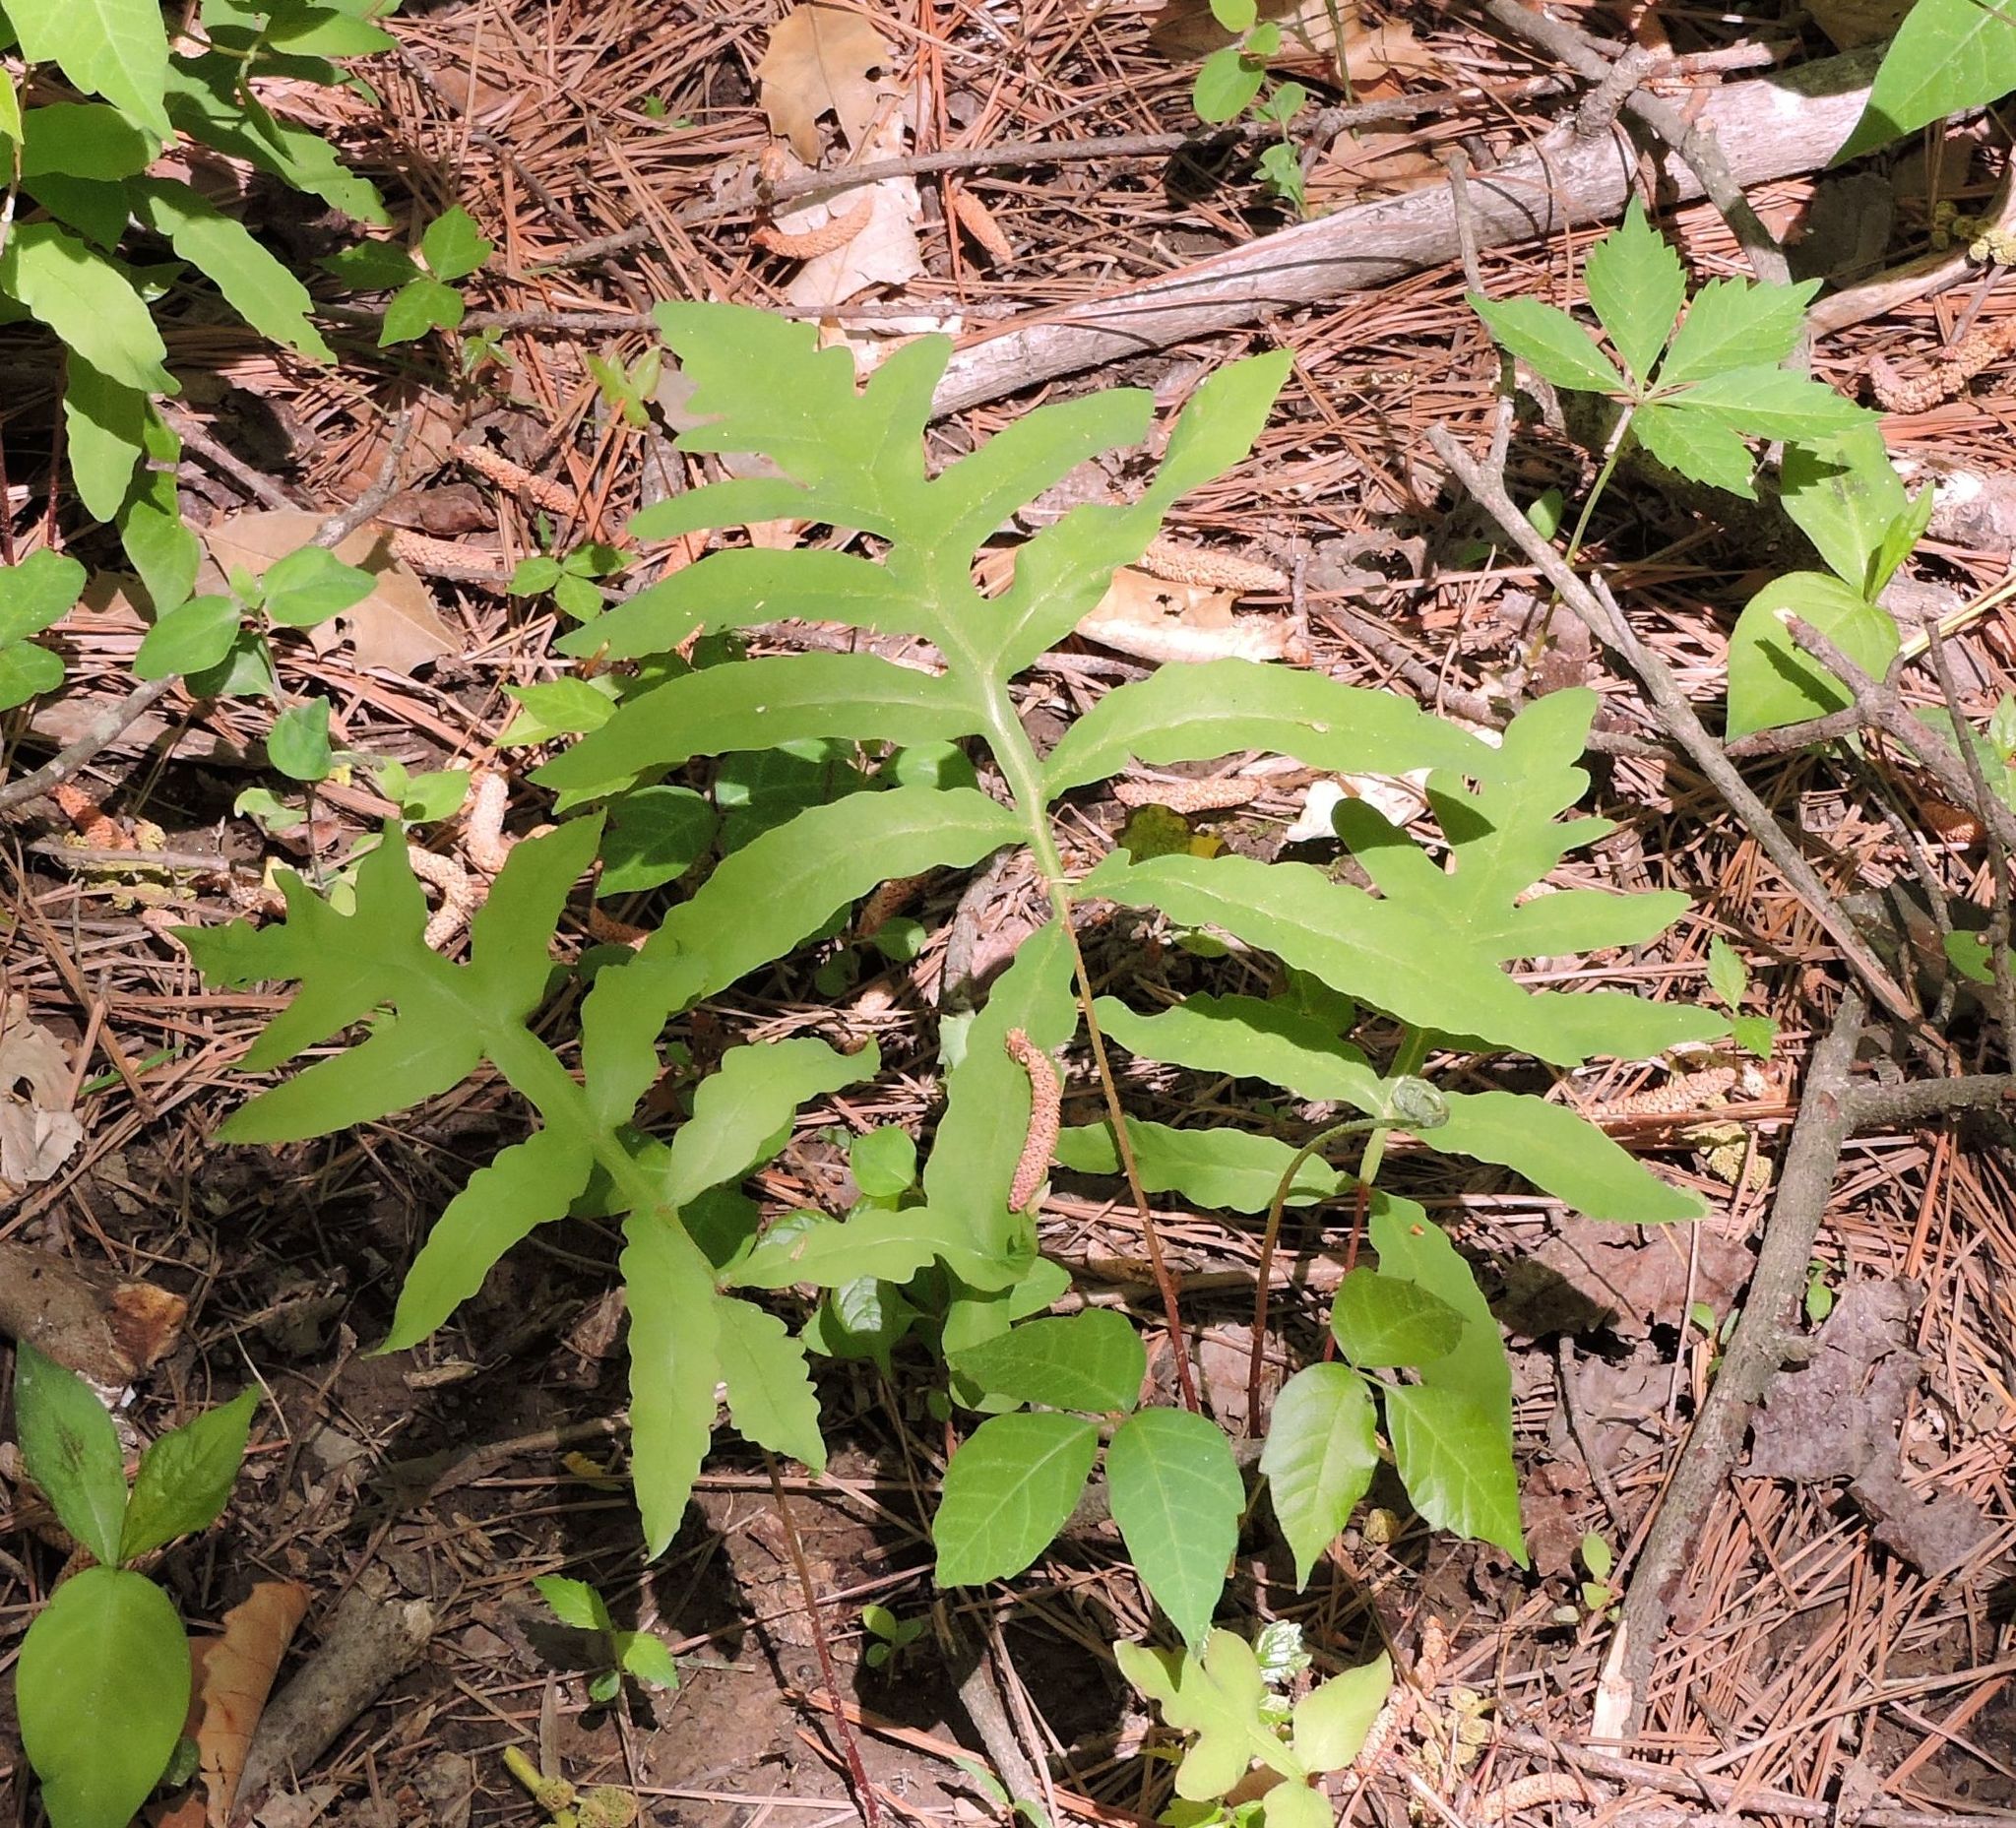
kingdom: Plantae
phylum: Tracheophyta
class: Polypodiopsida
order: Polypodiales
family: Onocleaceae
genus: Onoclea
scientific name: Onoclea sensibilis
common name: Sensitive fern
